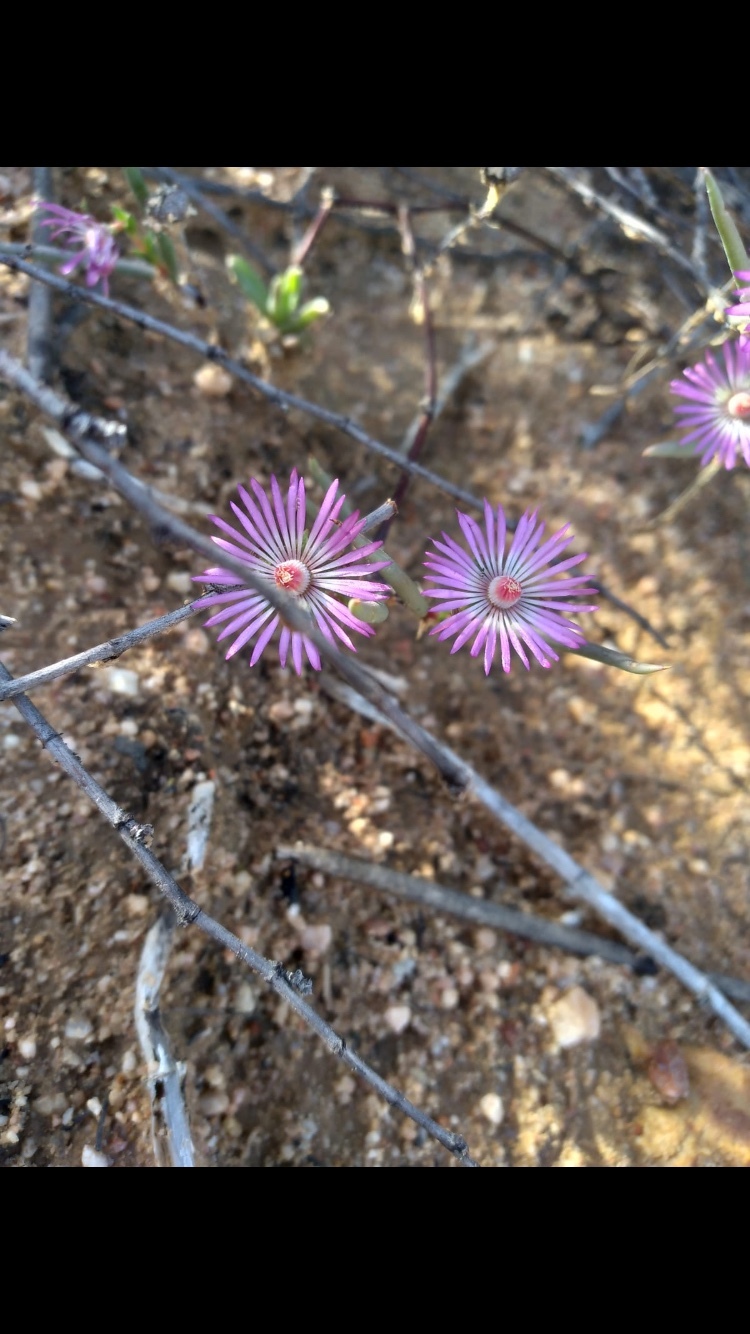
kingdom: Plantae
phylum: Tracheophyta
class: Magnoliopsida
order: Caryophyllales
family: Aizoaceae
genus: Lampranthus
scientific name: Lampranthus spiniformis
